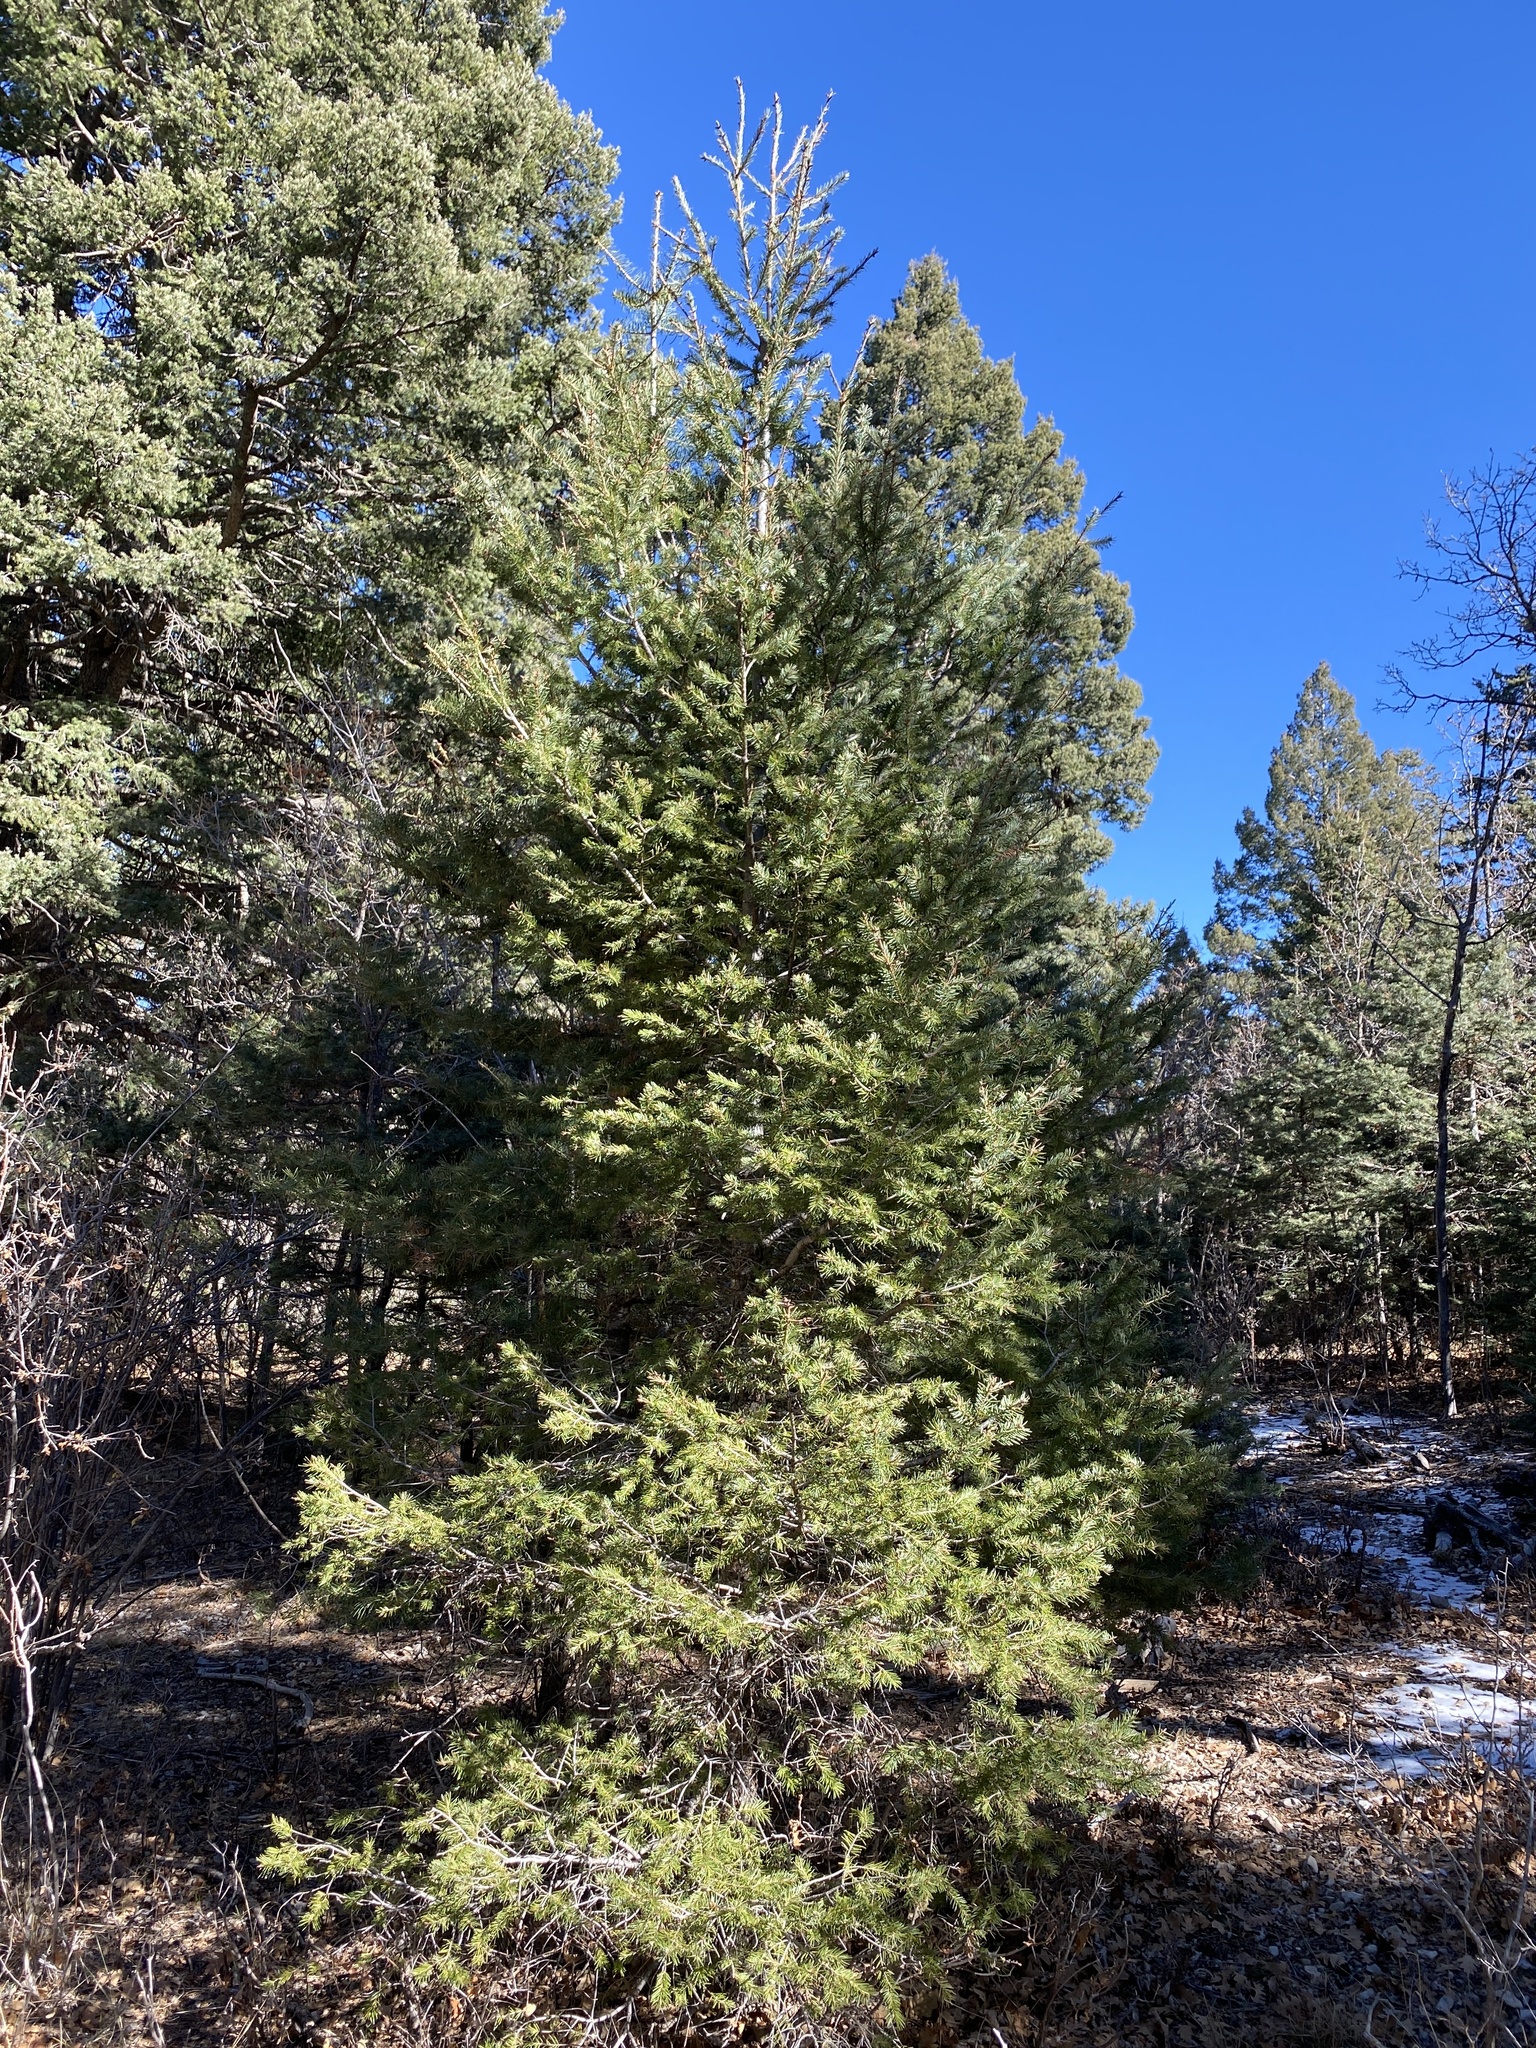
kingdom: Plantae
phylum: Tracheophyta
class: Pinopsida
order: Pinales
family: Pinaceae
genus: Pseudotsuga
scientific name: Pseudotsuga menziesii
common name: Douglas fir
